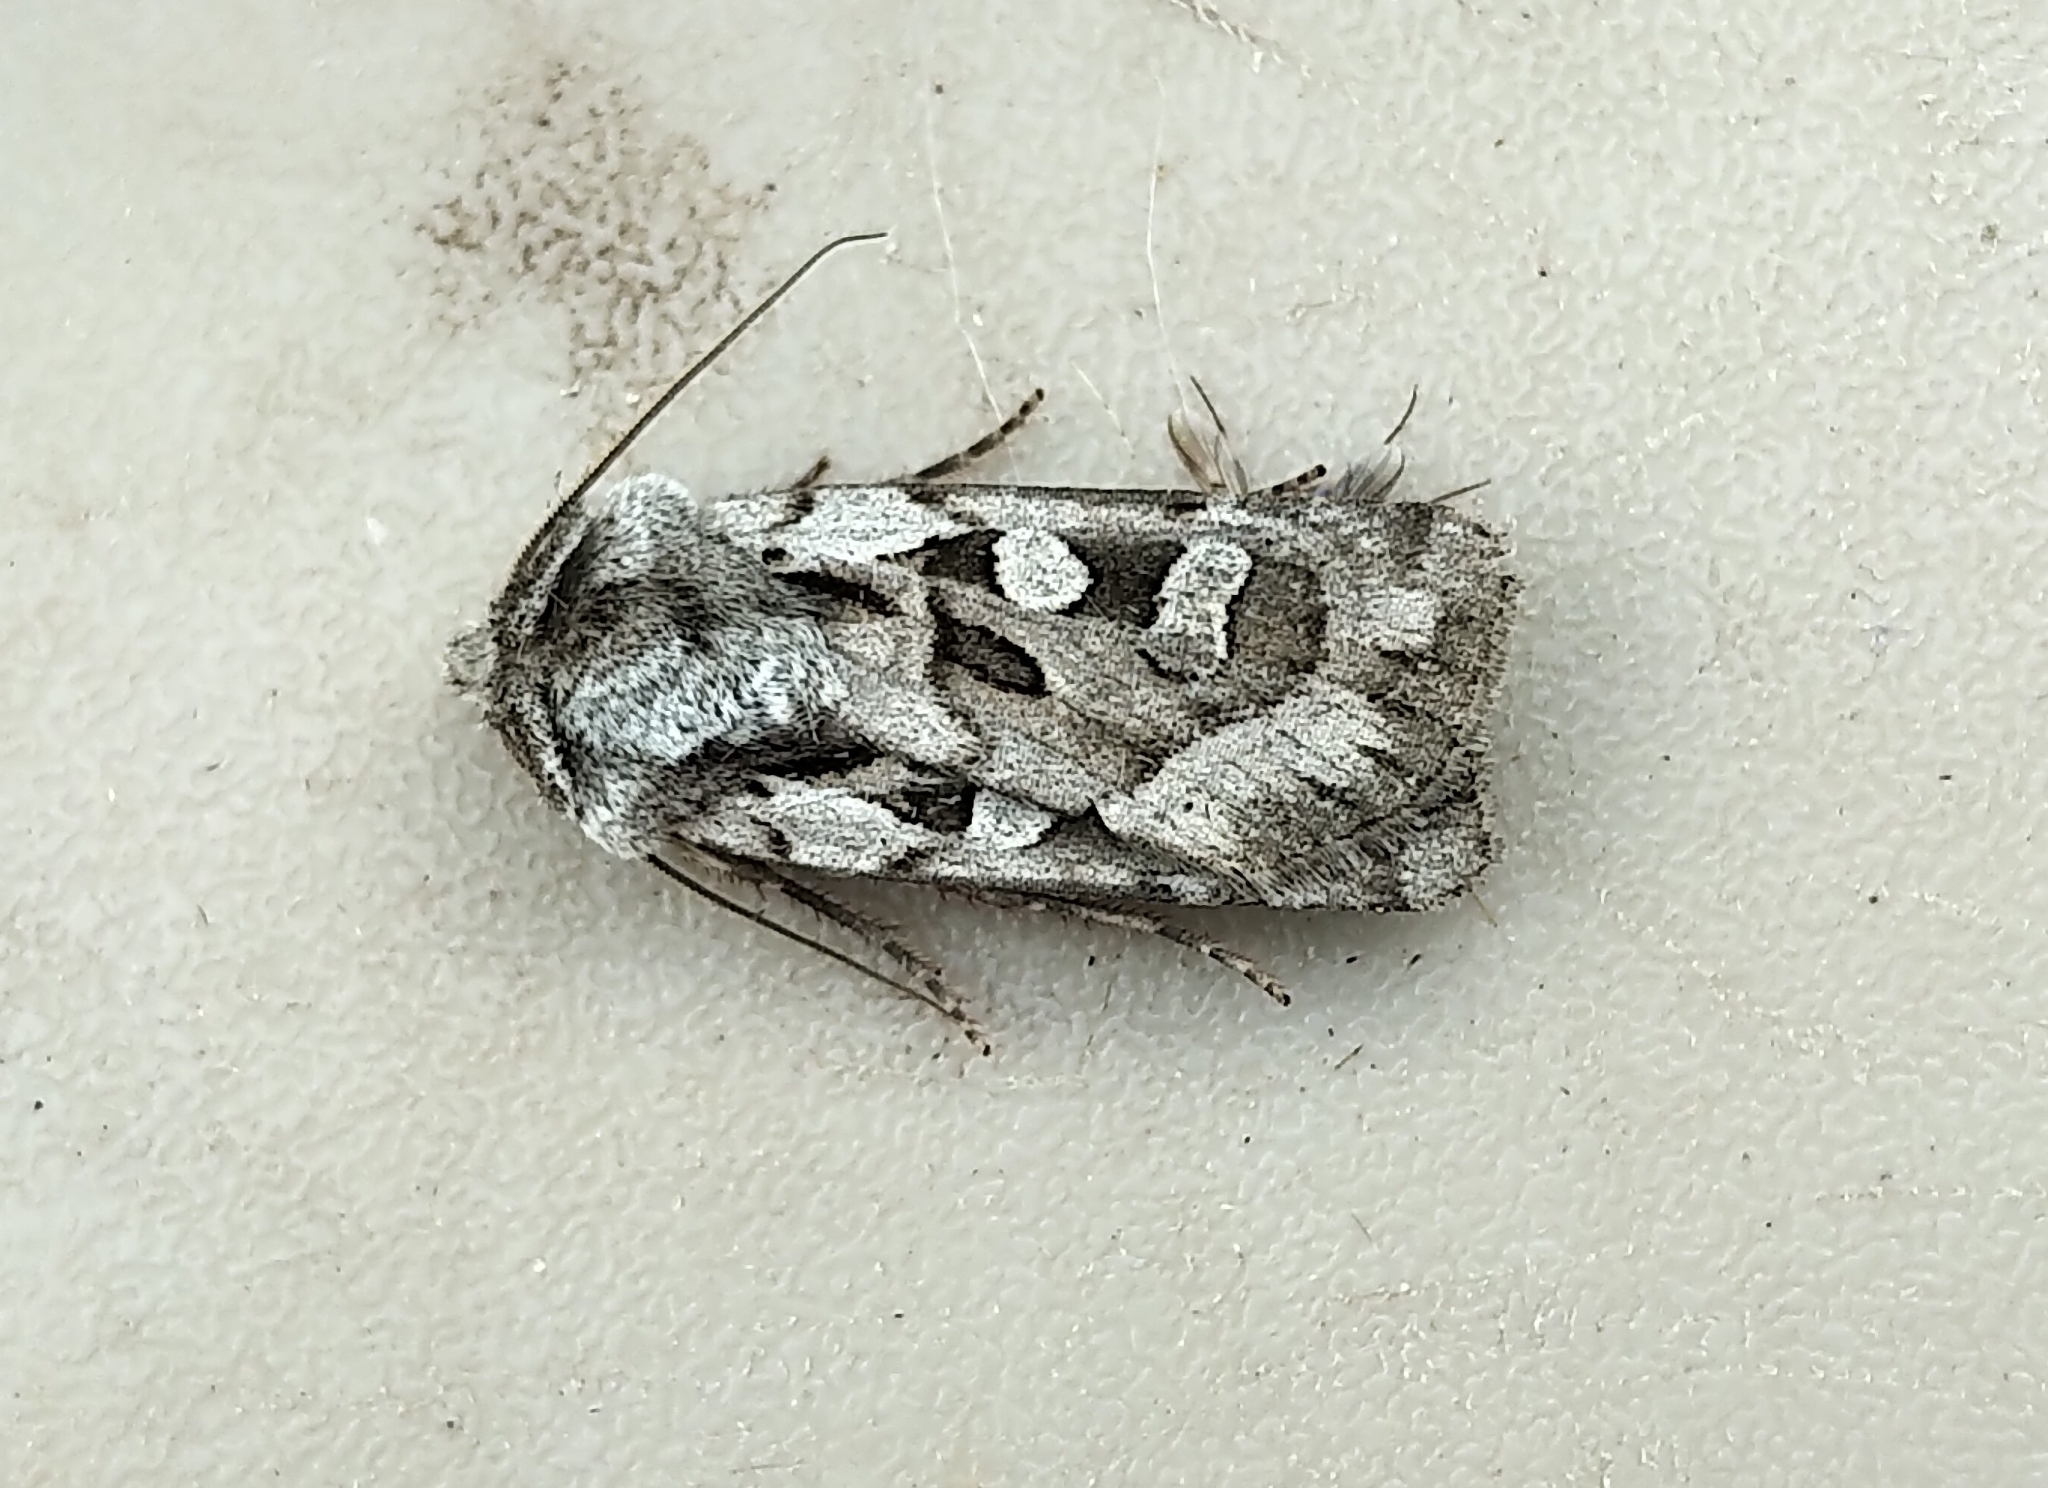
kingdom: Animalia
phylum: Arthropoda
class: Insecta
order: Lepidoptera
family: Noctuidae
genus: Euxoa
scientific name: Euxoa servita
